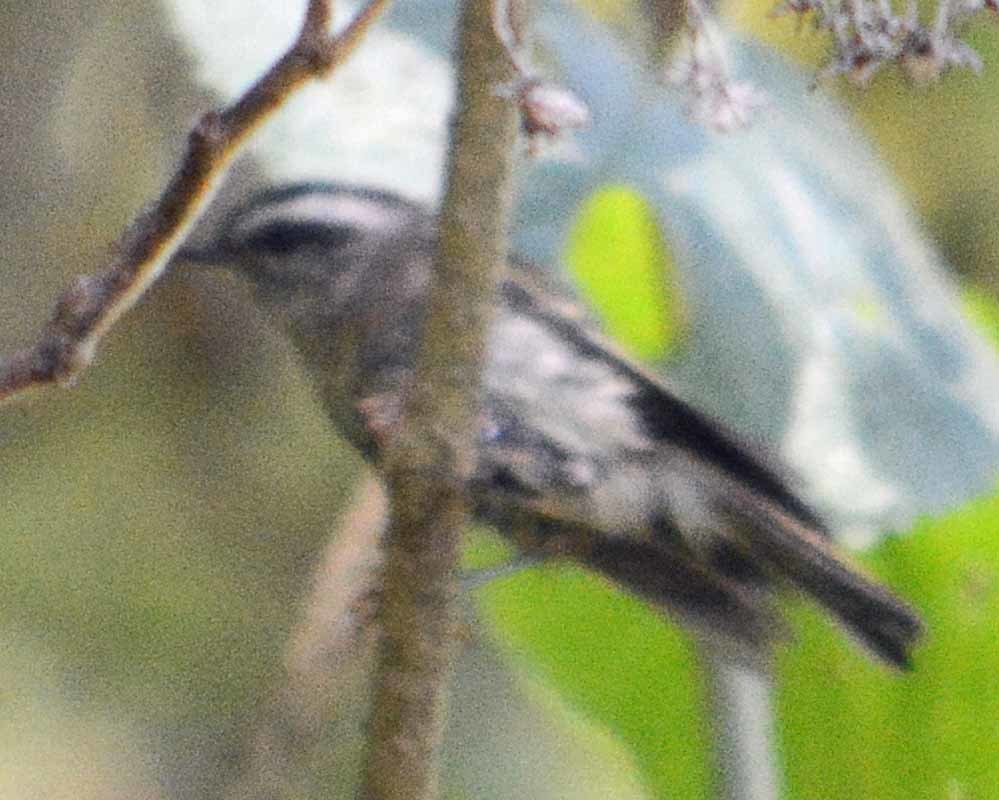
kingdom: Animalia
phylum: Chordata
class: Aves
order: Passeriformes
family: Regulidae
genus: Regulus
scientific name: Regulus satrapa
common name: Golden-crowned kinglet
